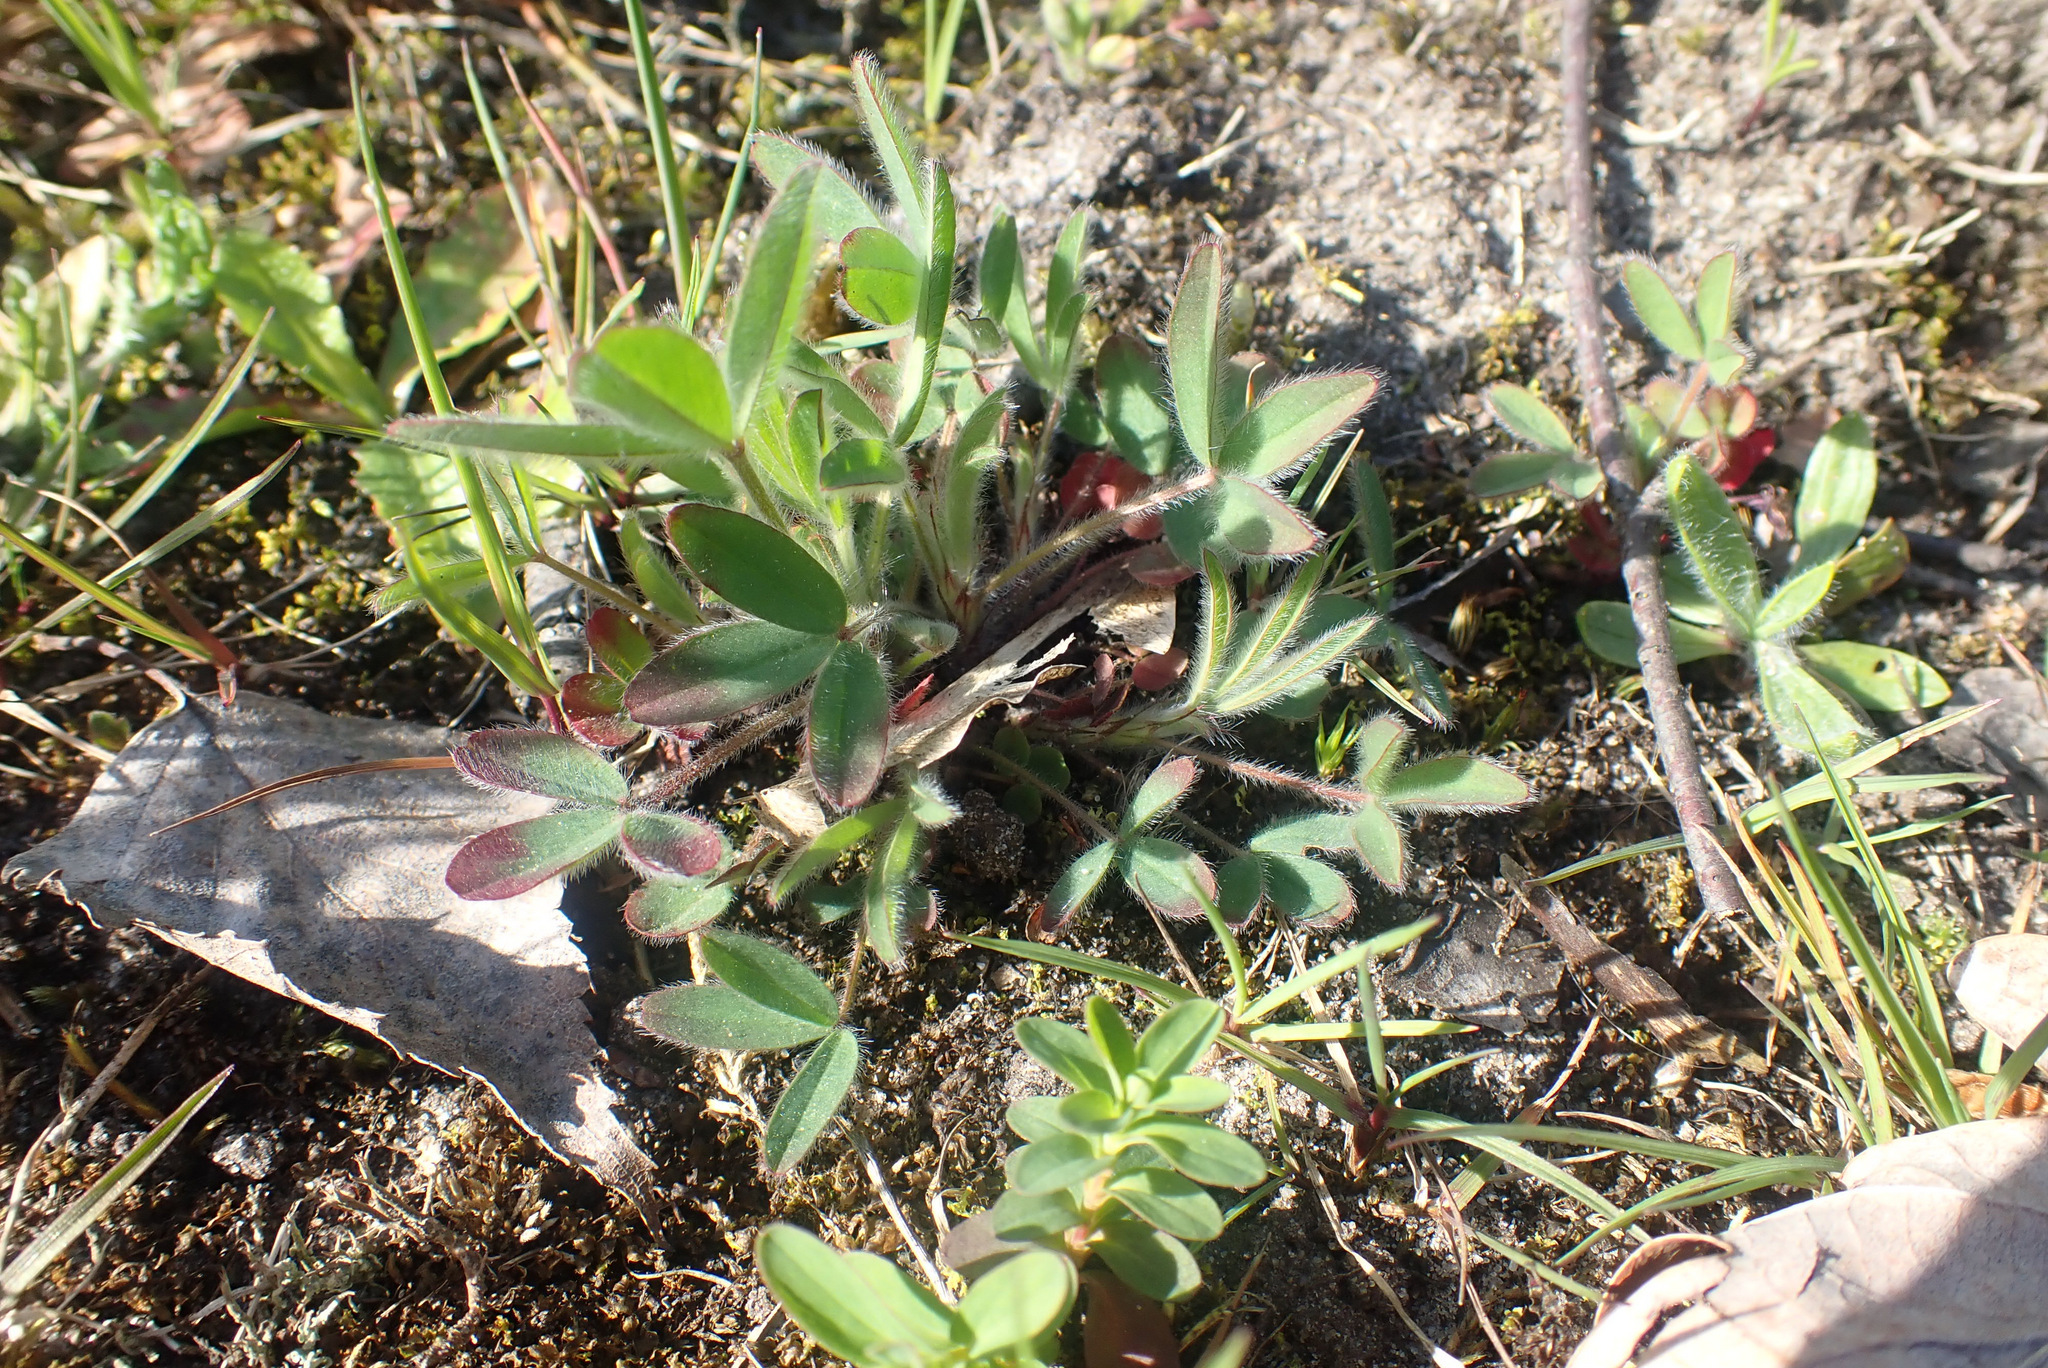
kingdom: Plantae
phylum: Tracheophyta
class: Magnoliopsida
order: Fabales
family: Fabaceae
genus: Trifolium
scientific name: Trifolium arvense
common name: Hare's-foot clover
